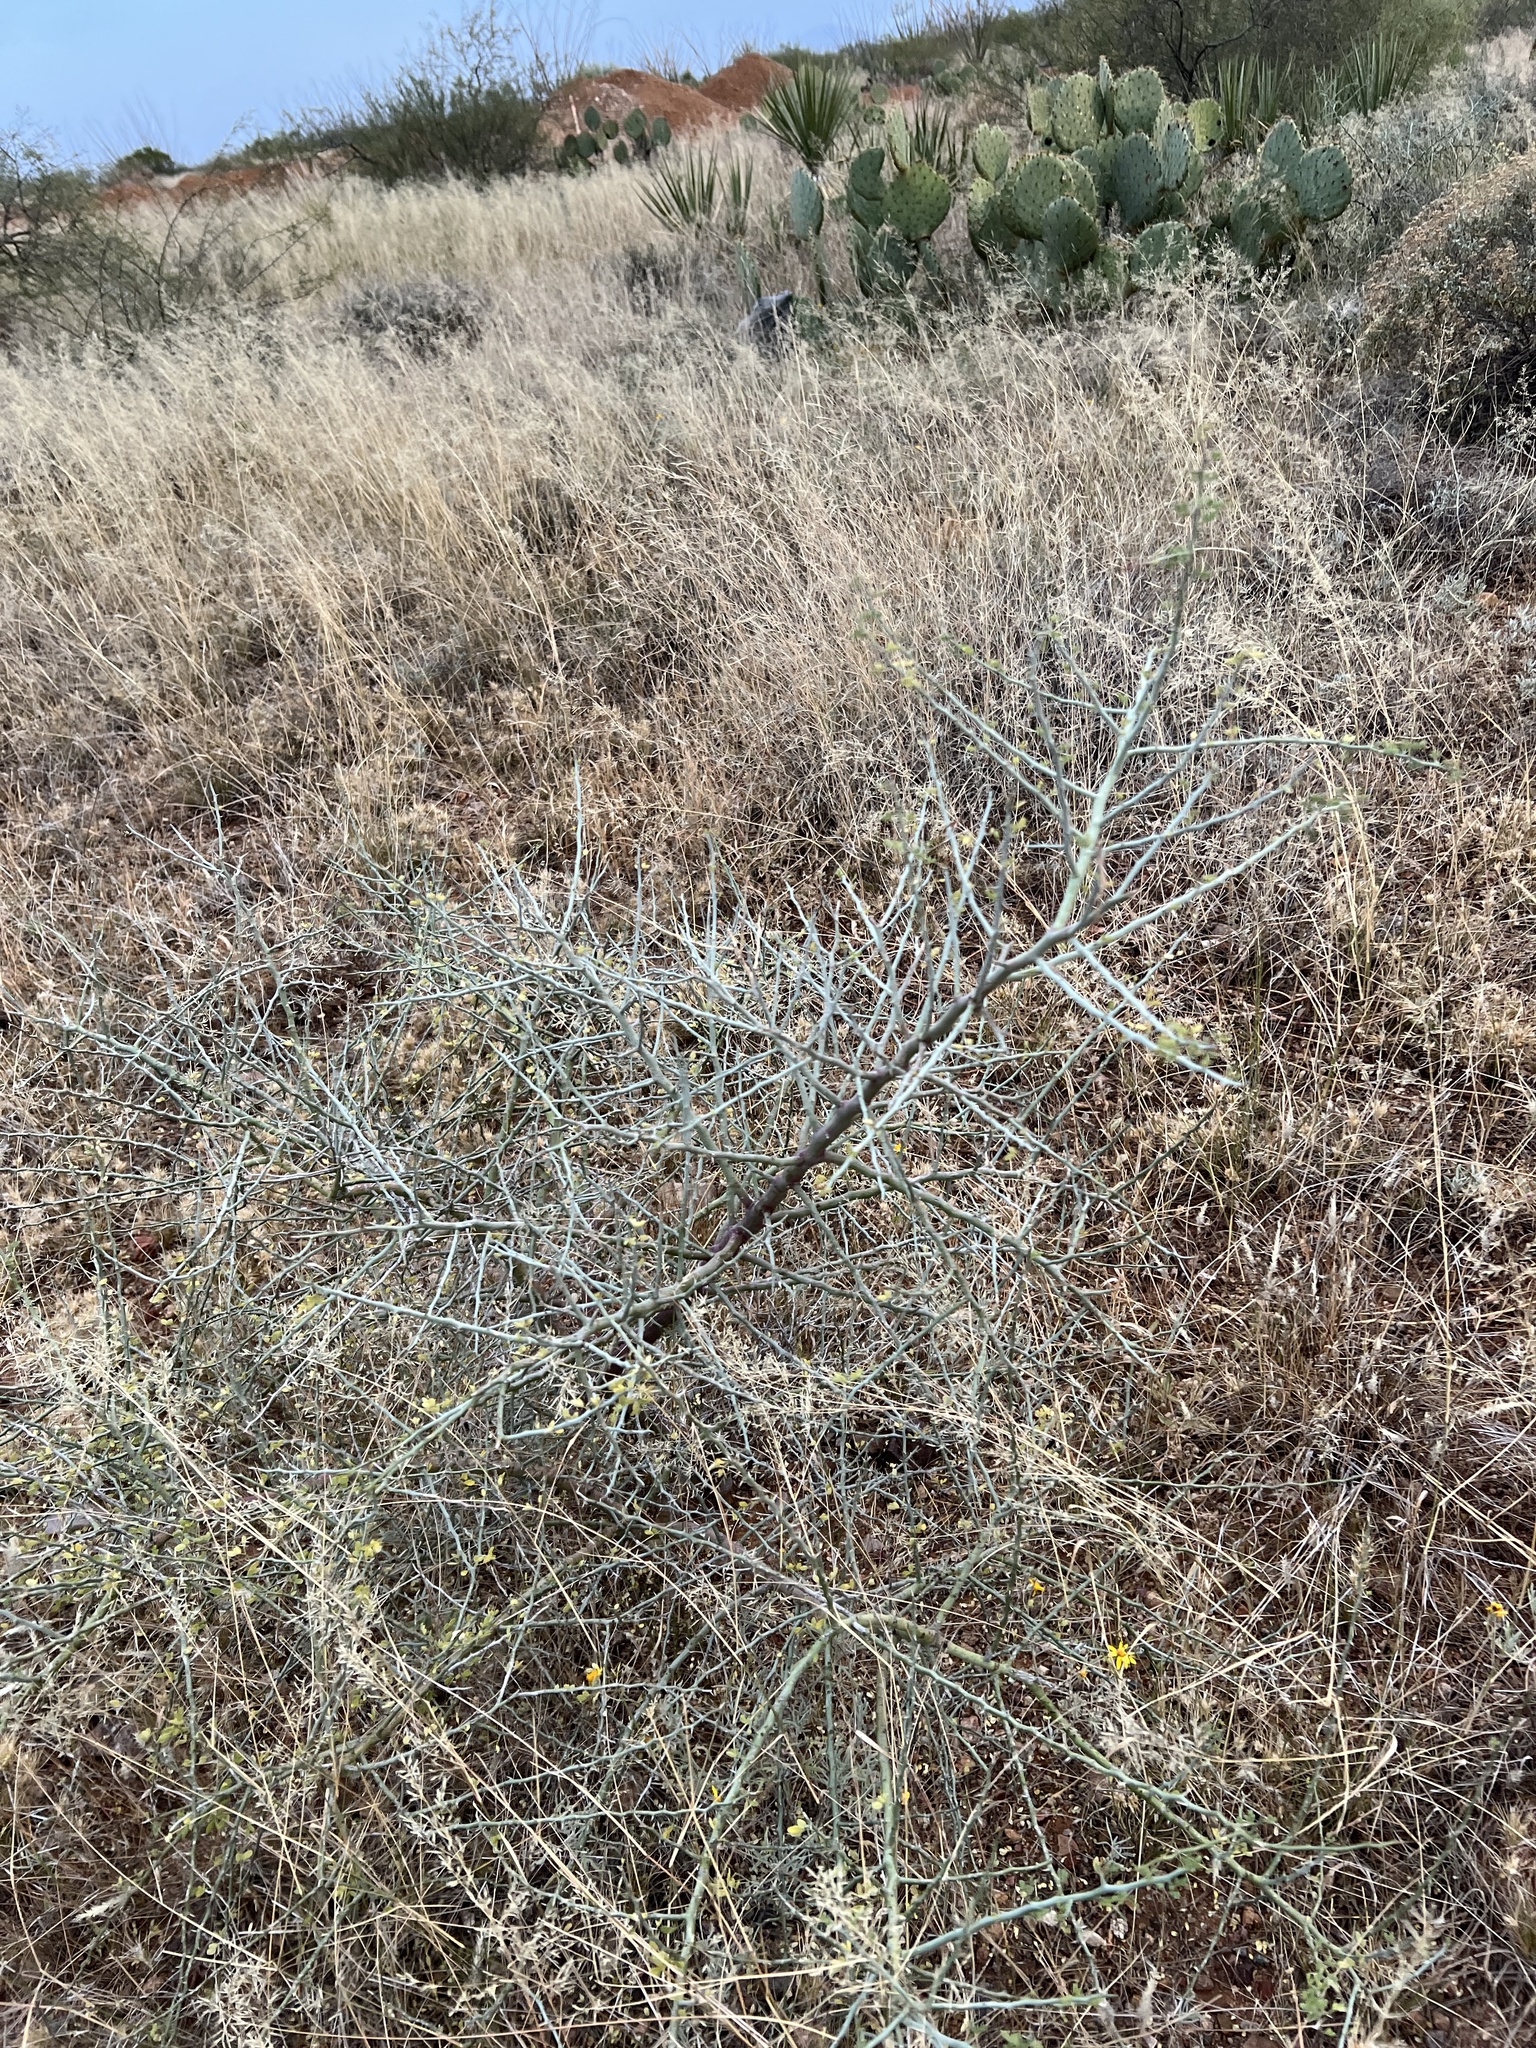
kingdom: Plantae
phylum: Tracheophyta
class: Magnoliopsida
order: Fabales
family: Fabaceae
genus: Parkinsonia
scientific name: Parkinsonia florida
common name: Blue paloverde
